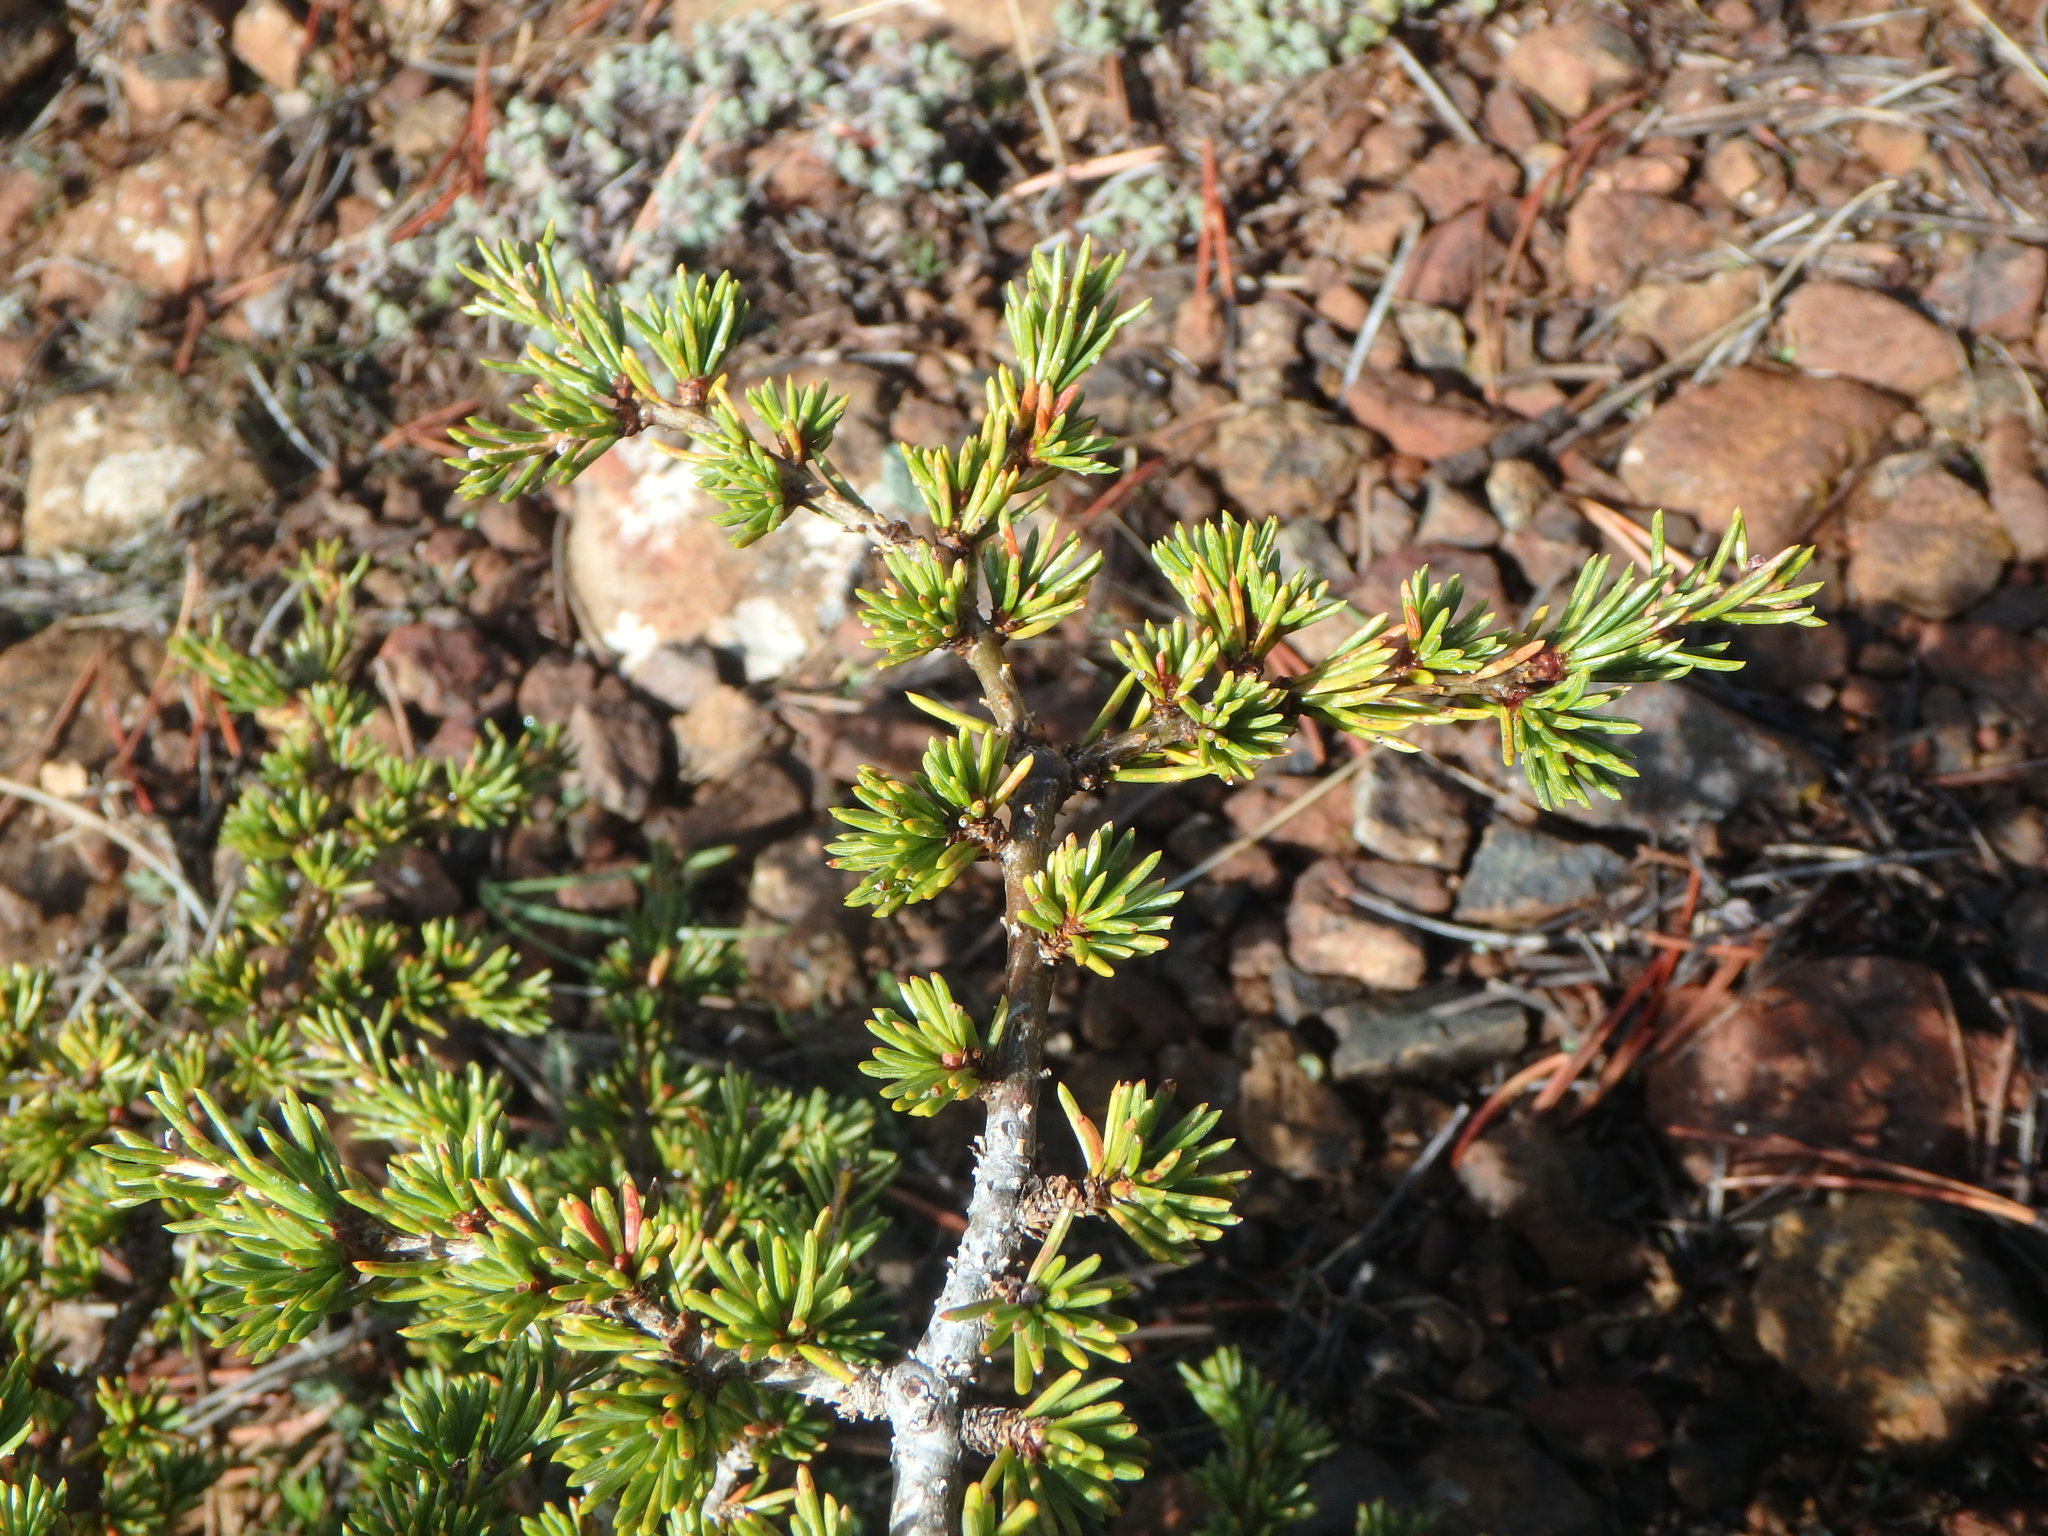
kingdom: Plantae
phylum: Tracheophyta
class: Pinopsida
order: Pinales
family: Pinaceae
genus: Cedrus
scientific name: Cedrus brevifolia
